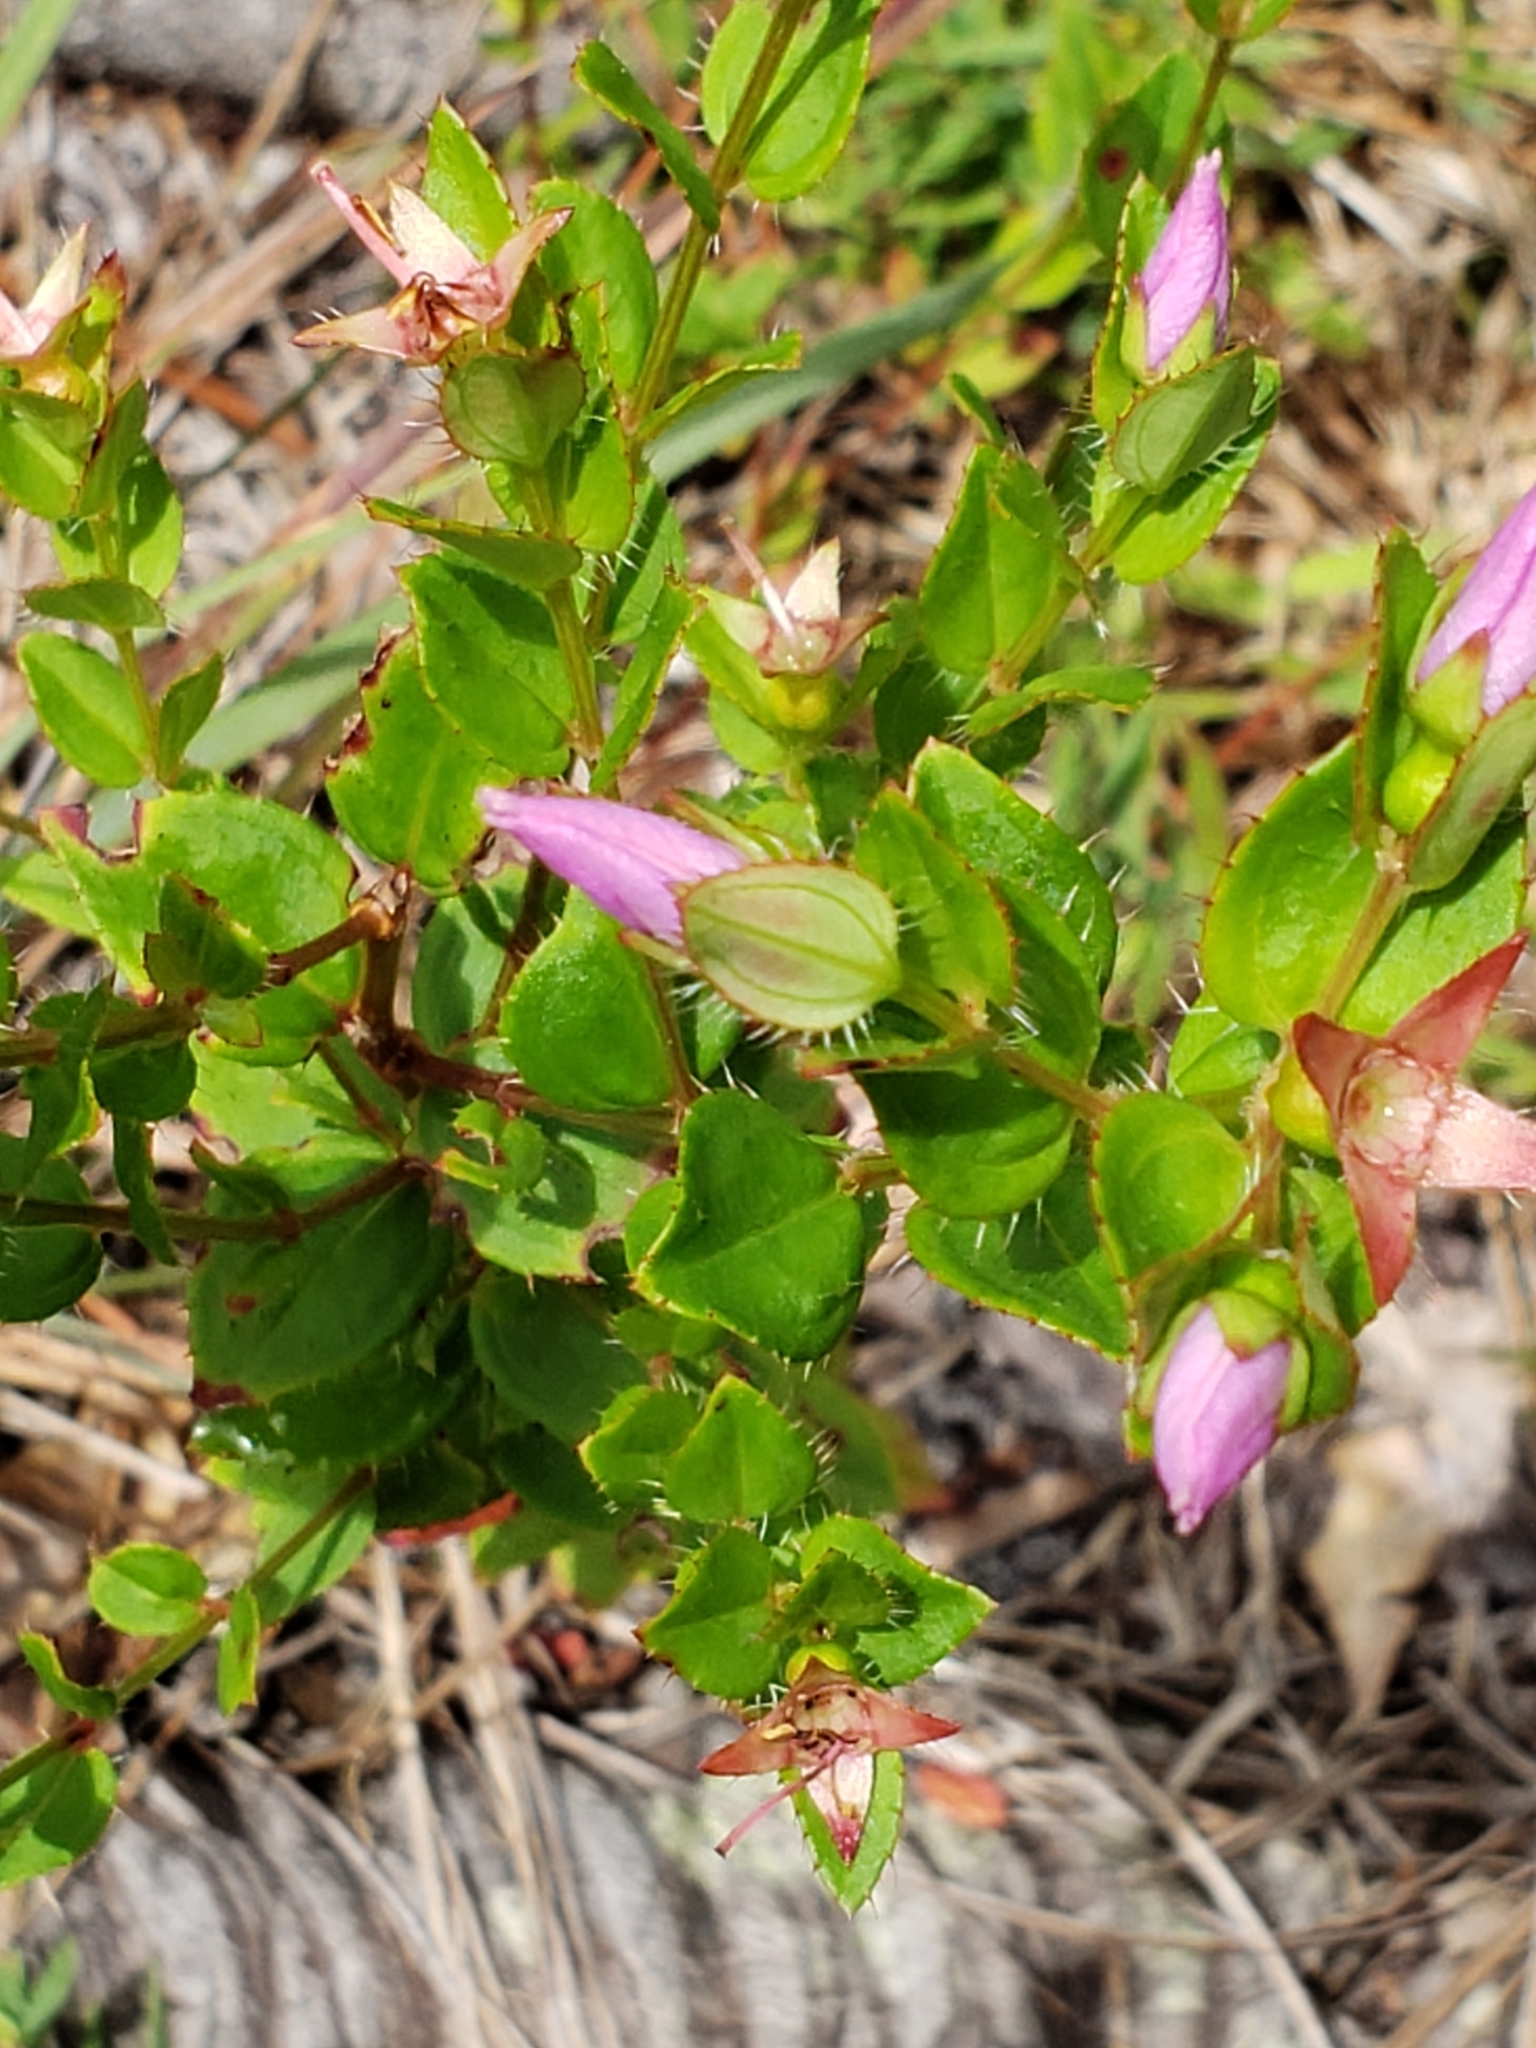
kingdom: Plantae
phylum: Tracheophyta
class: Magnoliopsida
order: Myrtales
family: Melastomataceae
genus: Rhexia
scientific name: Rhexia petiolata
